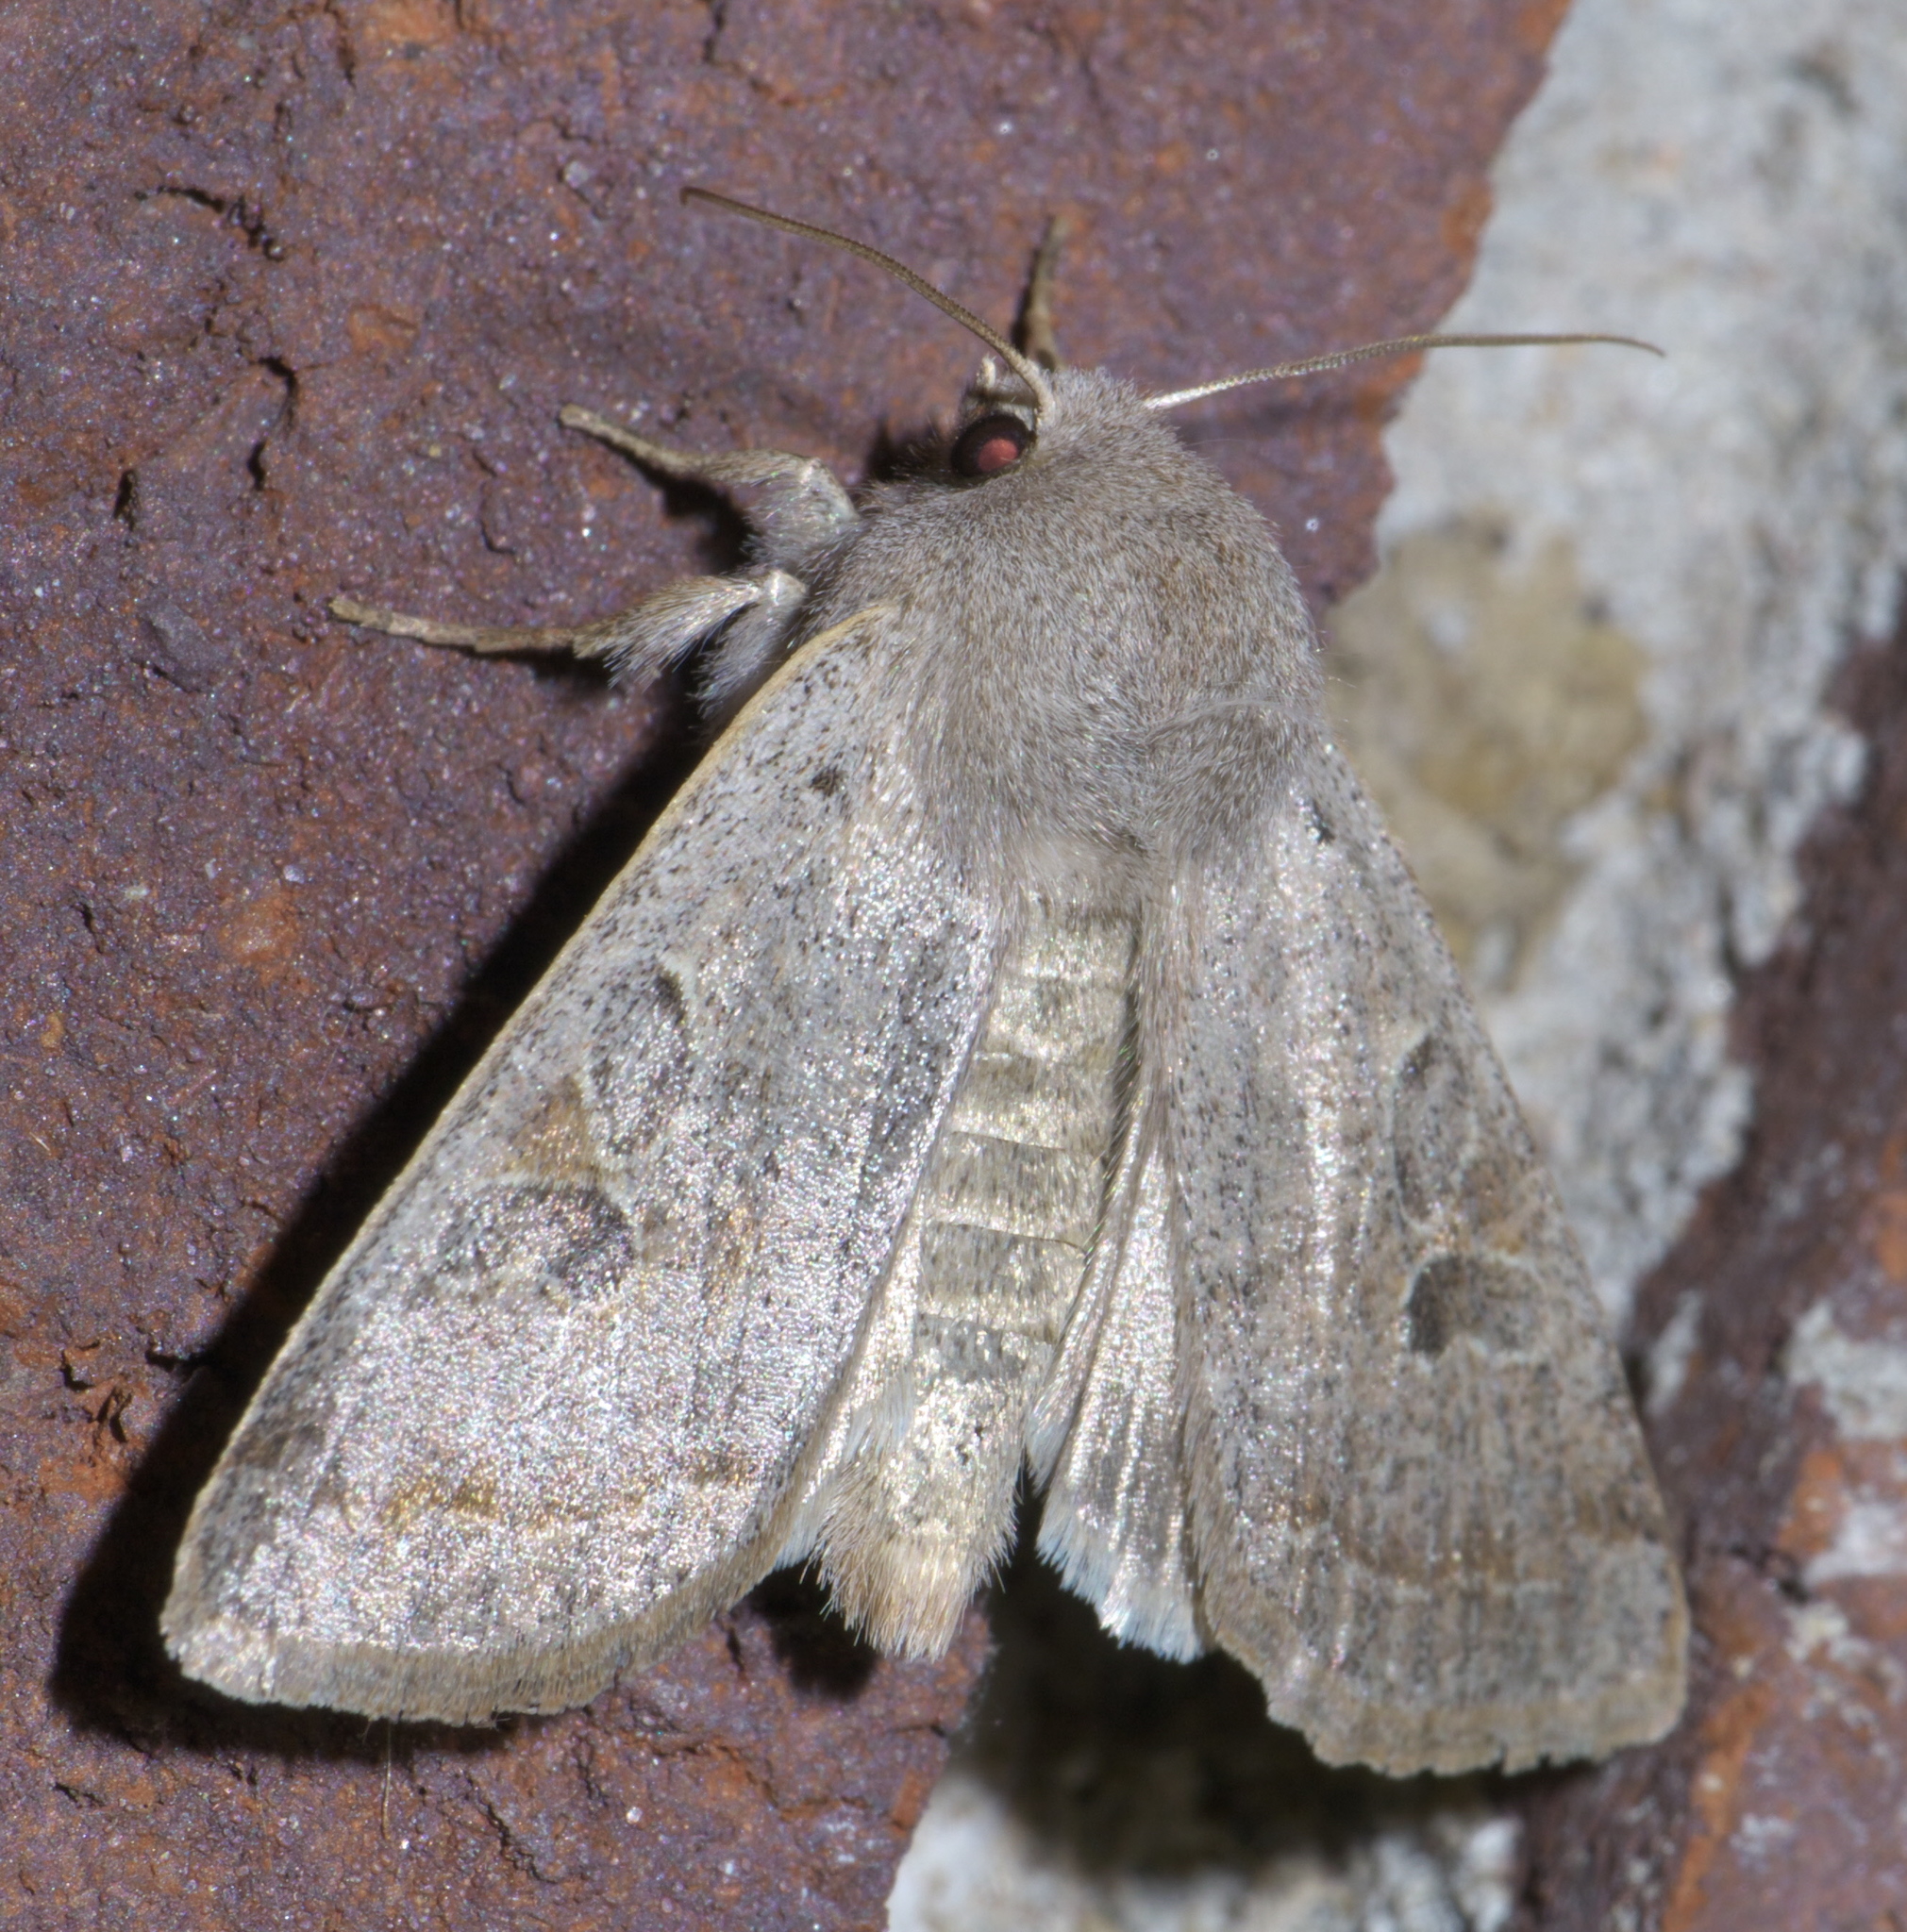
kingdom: Animalia
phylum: Arthropoda
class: Insecta
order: Lepidoptera
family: Noctuidae
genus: Orthosia
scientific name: Orthosia hibisci
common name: Green fruitworm
